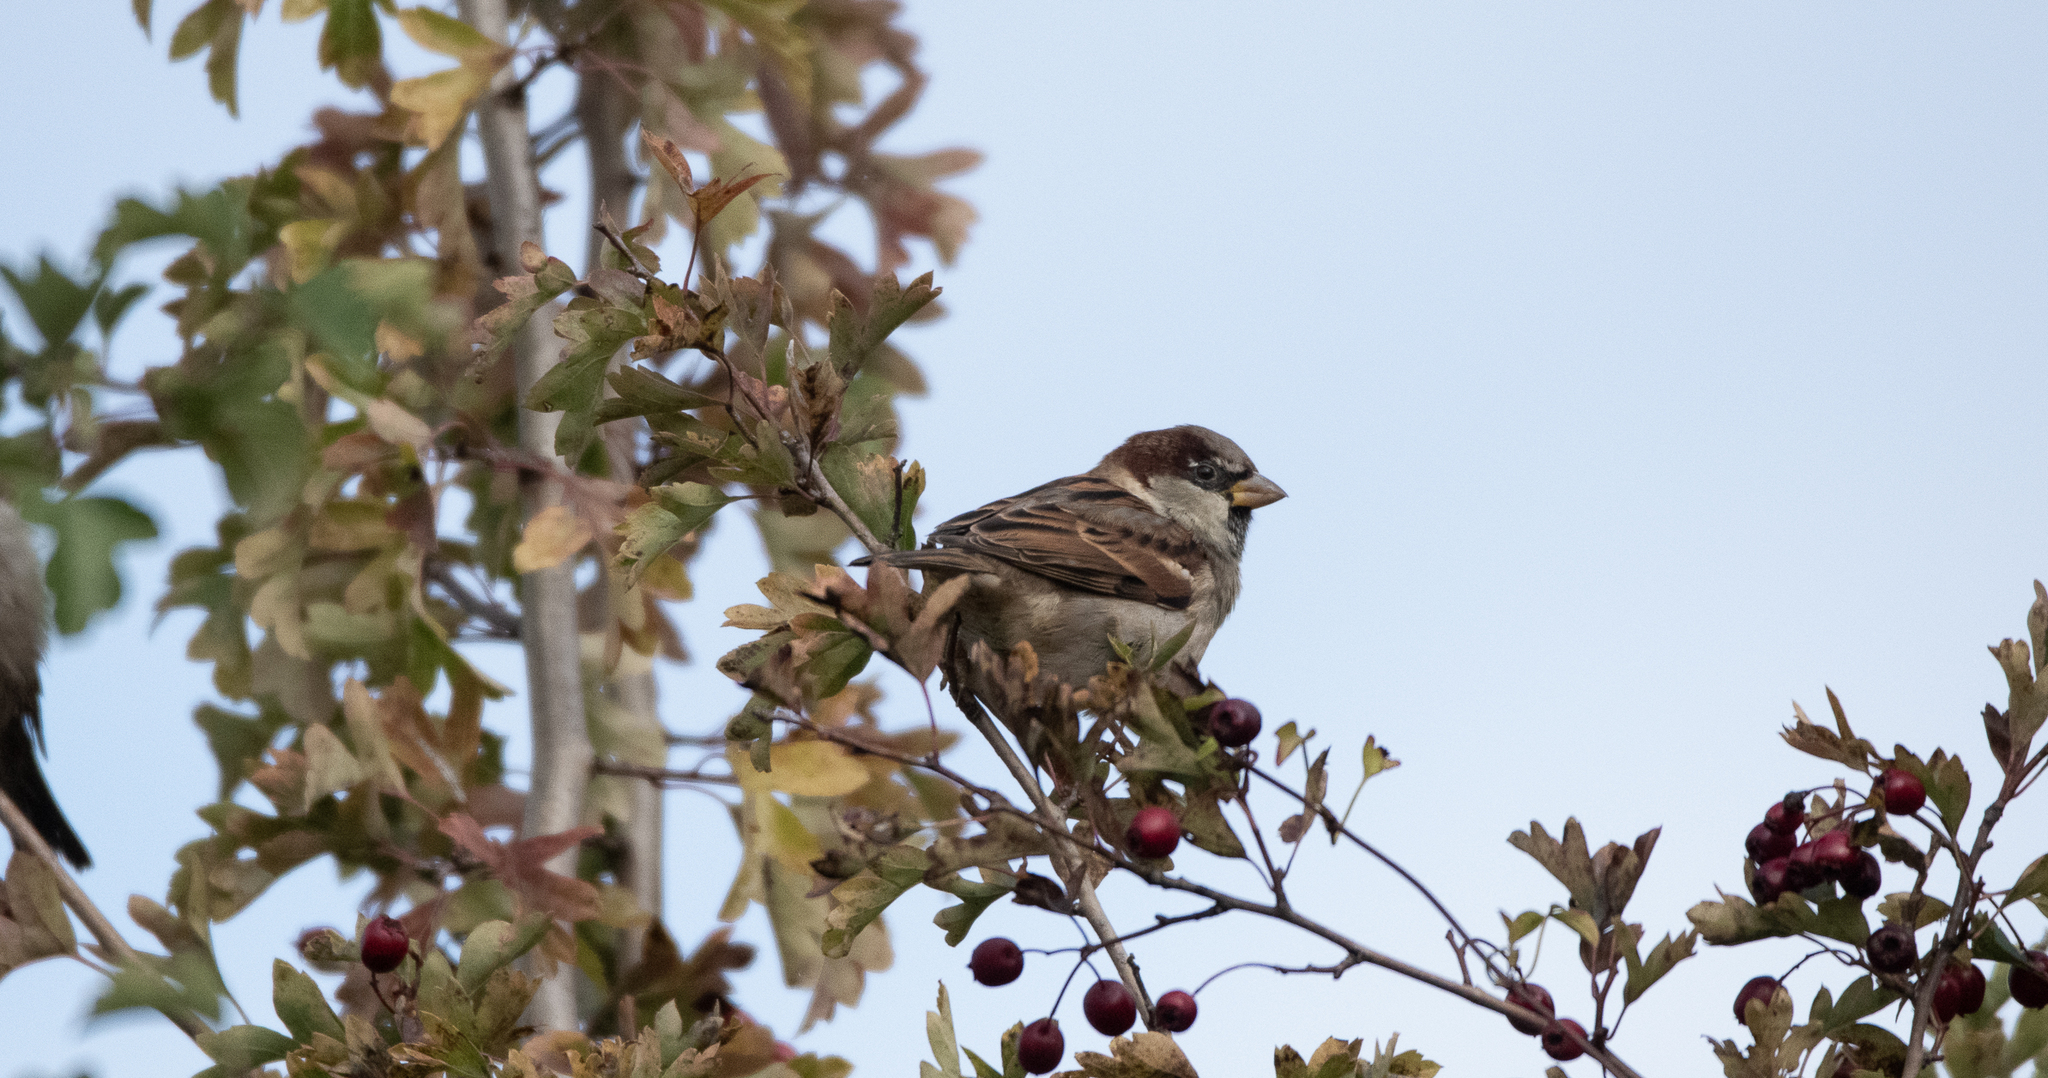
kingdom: Animalia
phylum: Chordata
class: Aves
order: Passeriformes
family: Passeridae
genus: Passer
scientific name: Passer domesticus
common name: House sparrow
